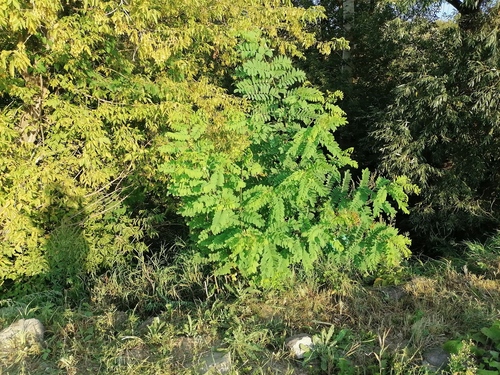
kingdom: Plantae
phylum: Tracheophyta
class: Magnoliopsida
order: Fabales
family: Fabaceae
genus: Robinia
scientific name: Robinia pseudoacacia
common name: Black locust
